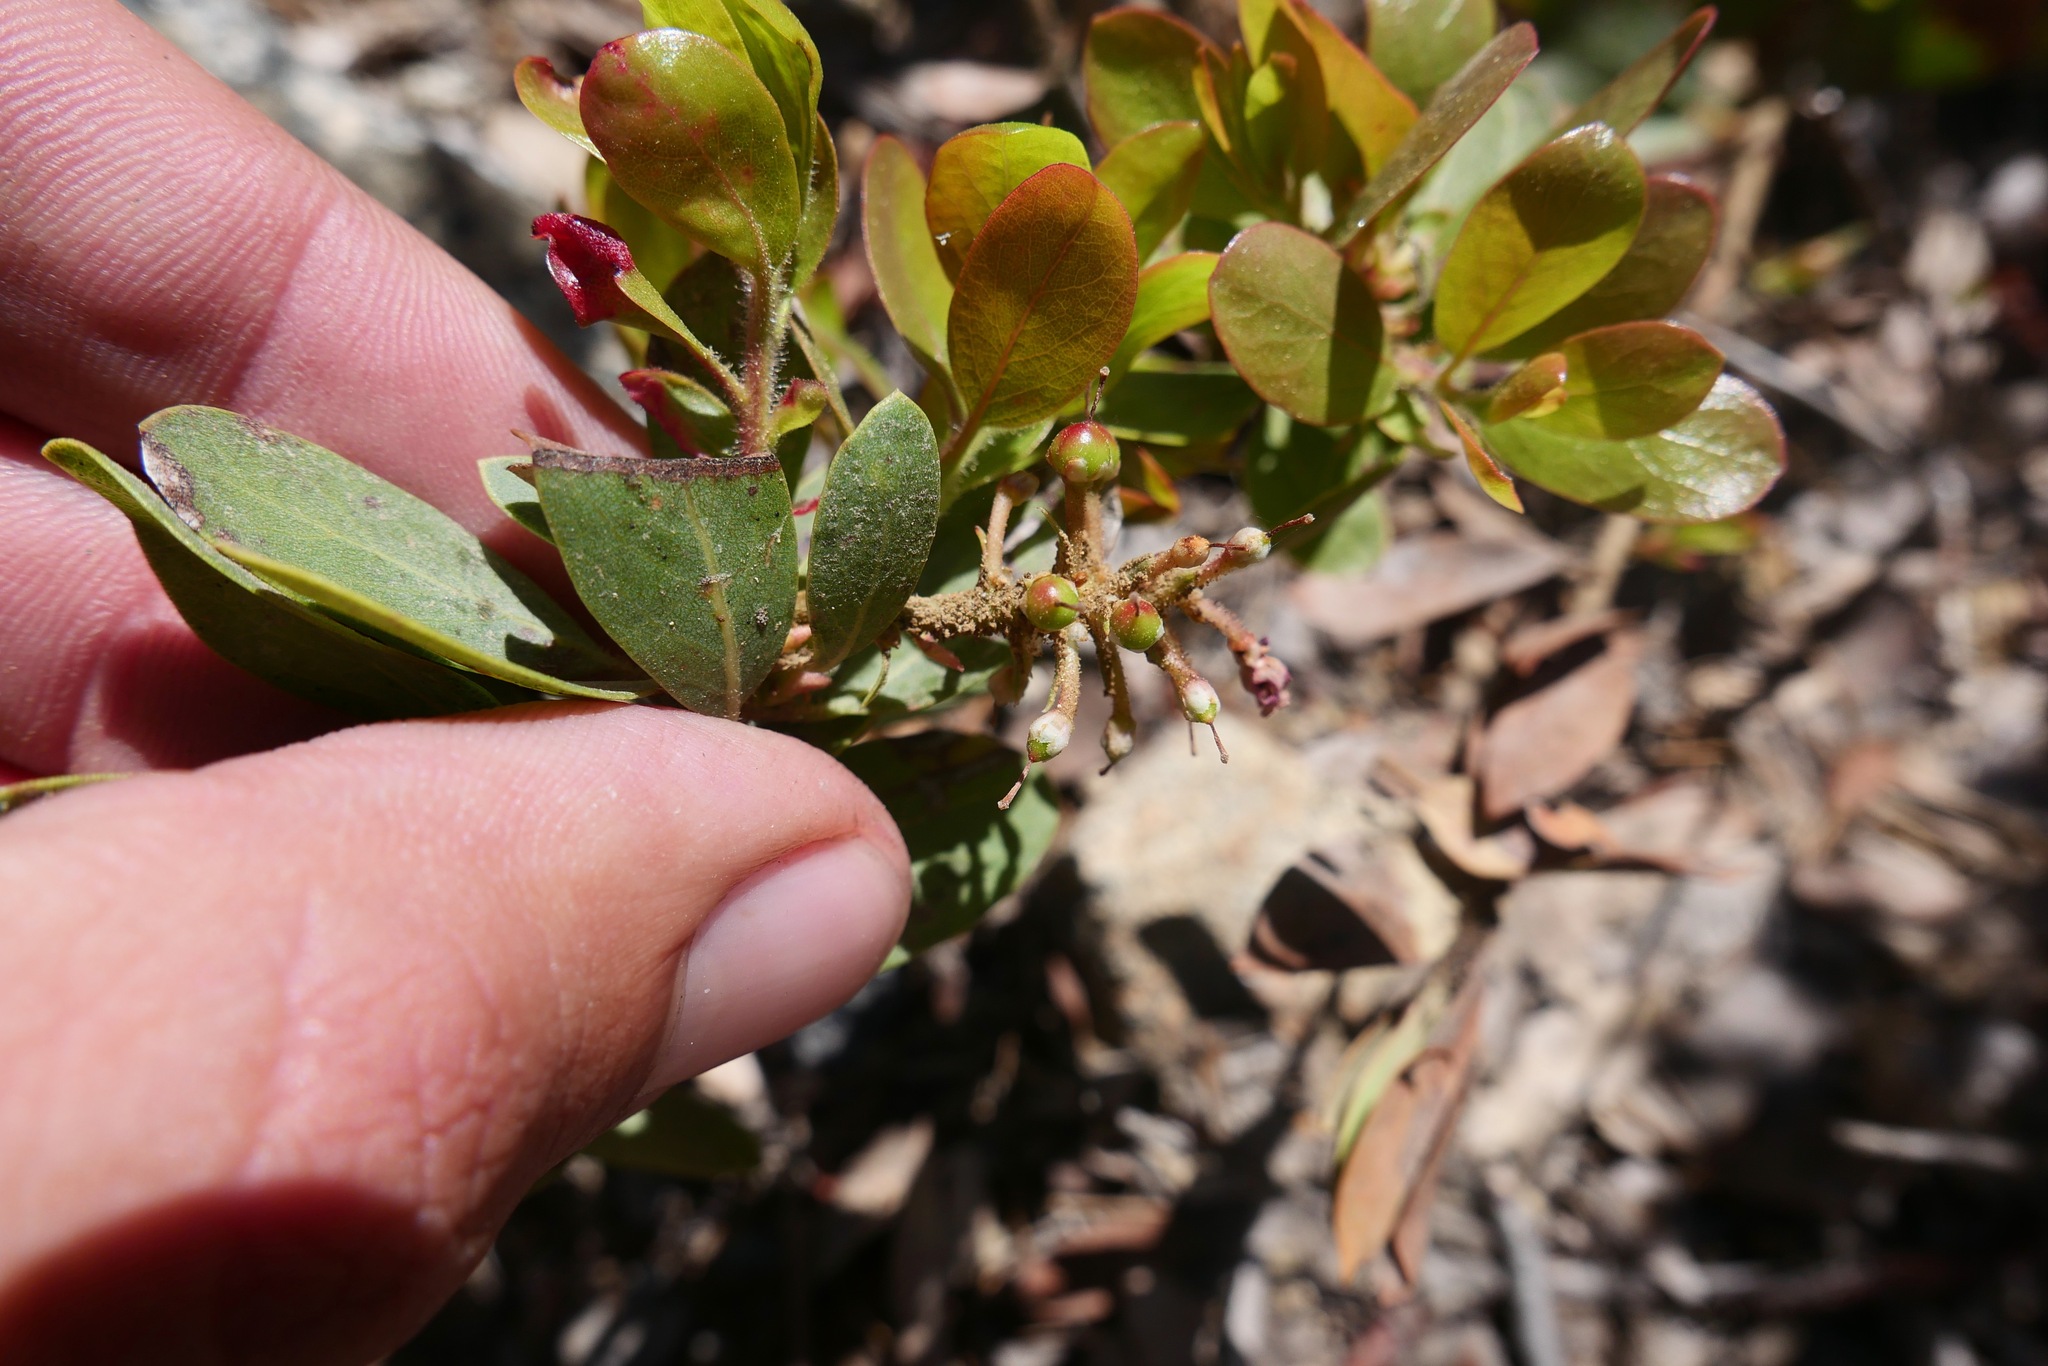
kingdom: Plantae
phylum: Tracheophyta
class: Magnoliopsida
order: Ericales
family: Ericaceae
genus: Arctostaphylos
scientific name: Arctostaphylos klamathensis
